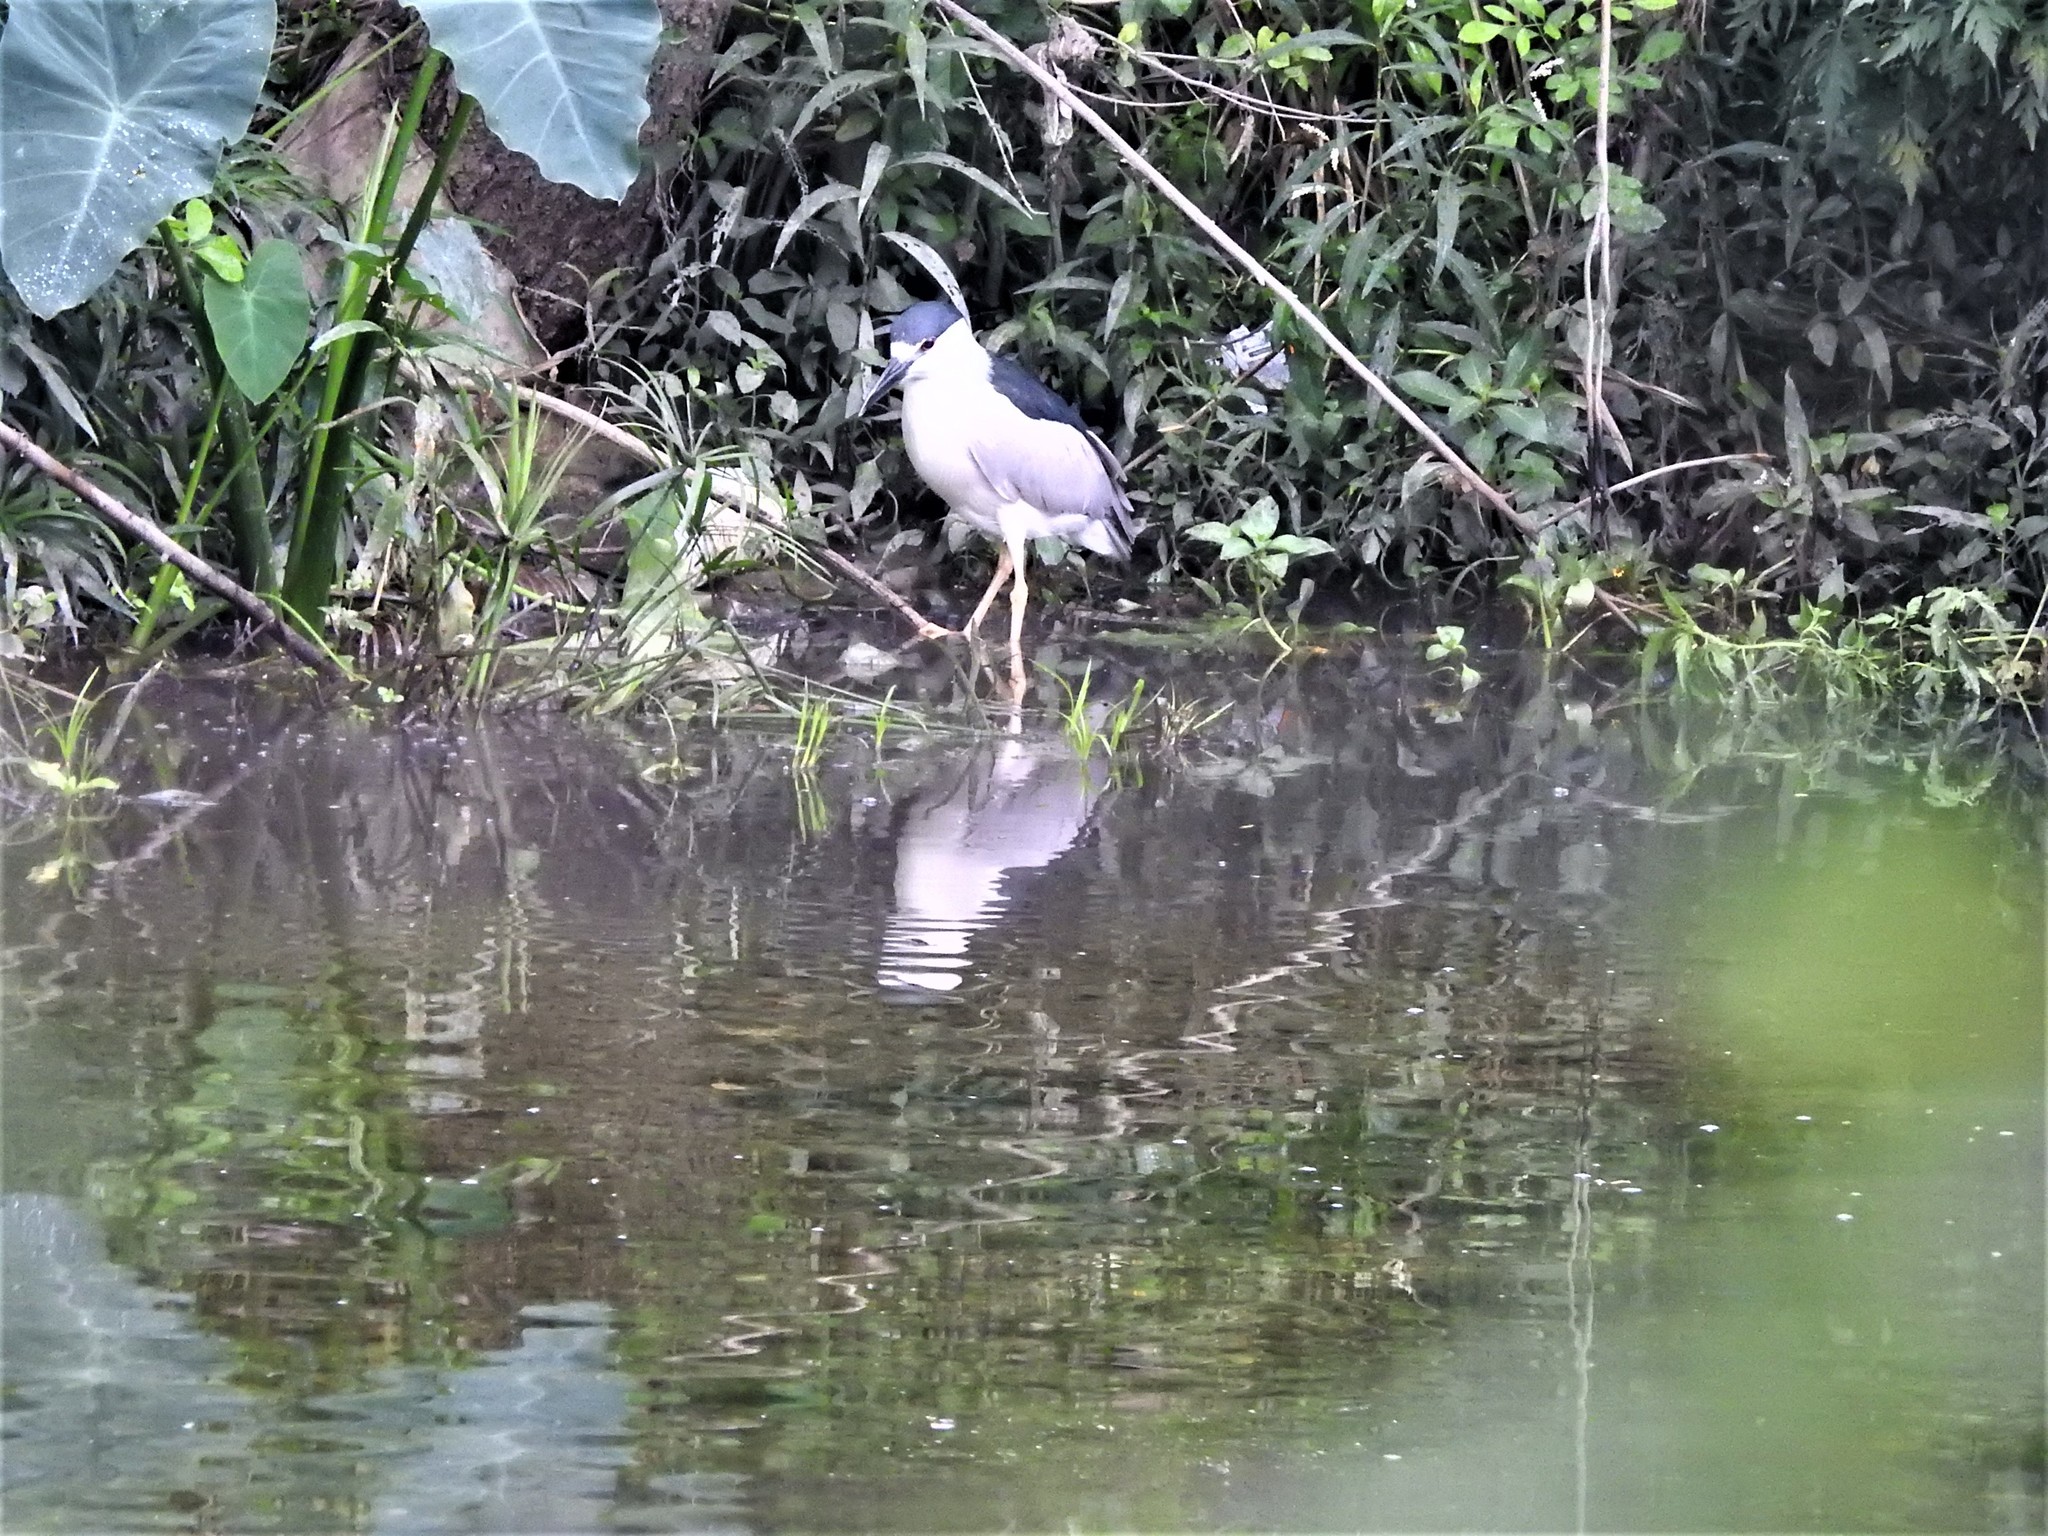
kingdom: Animalia
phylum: Chordata
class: Aves
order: Pelecaniformes
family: Ardeidae
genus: Nycticorax
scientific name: Nycticorax nycticorax
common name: Black-crowned night heron
